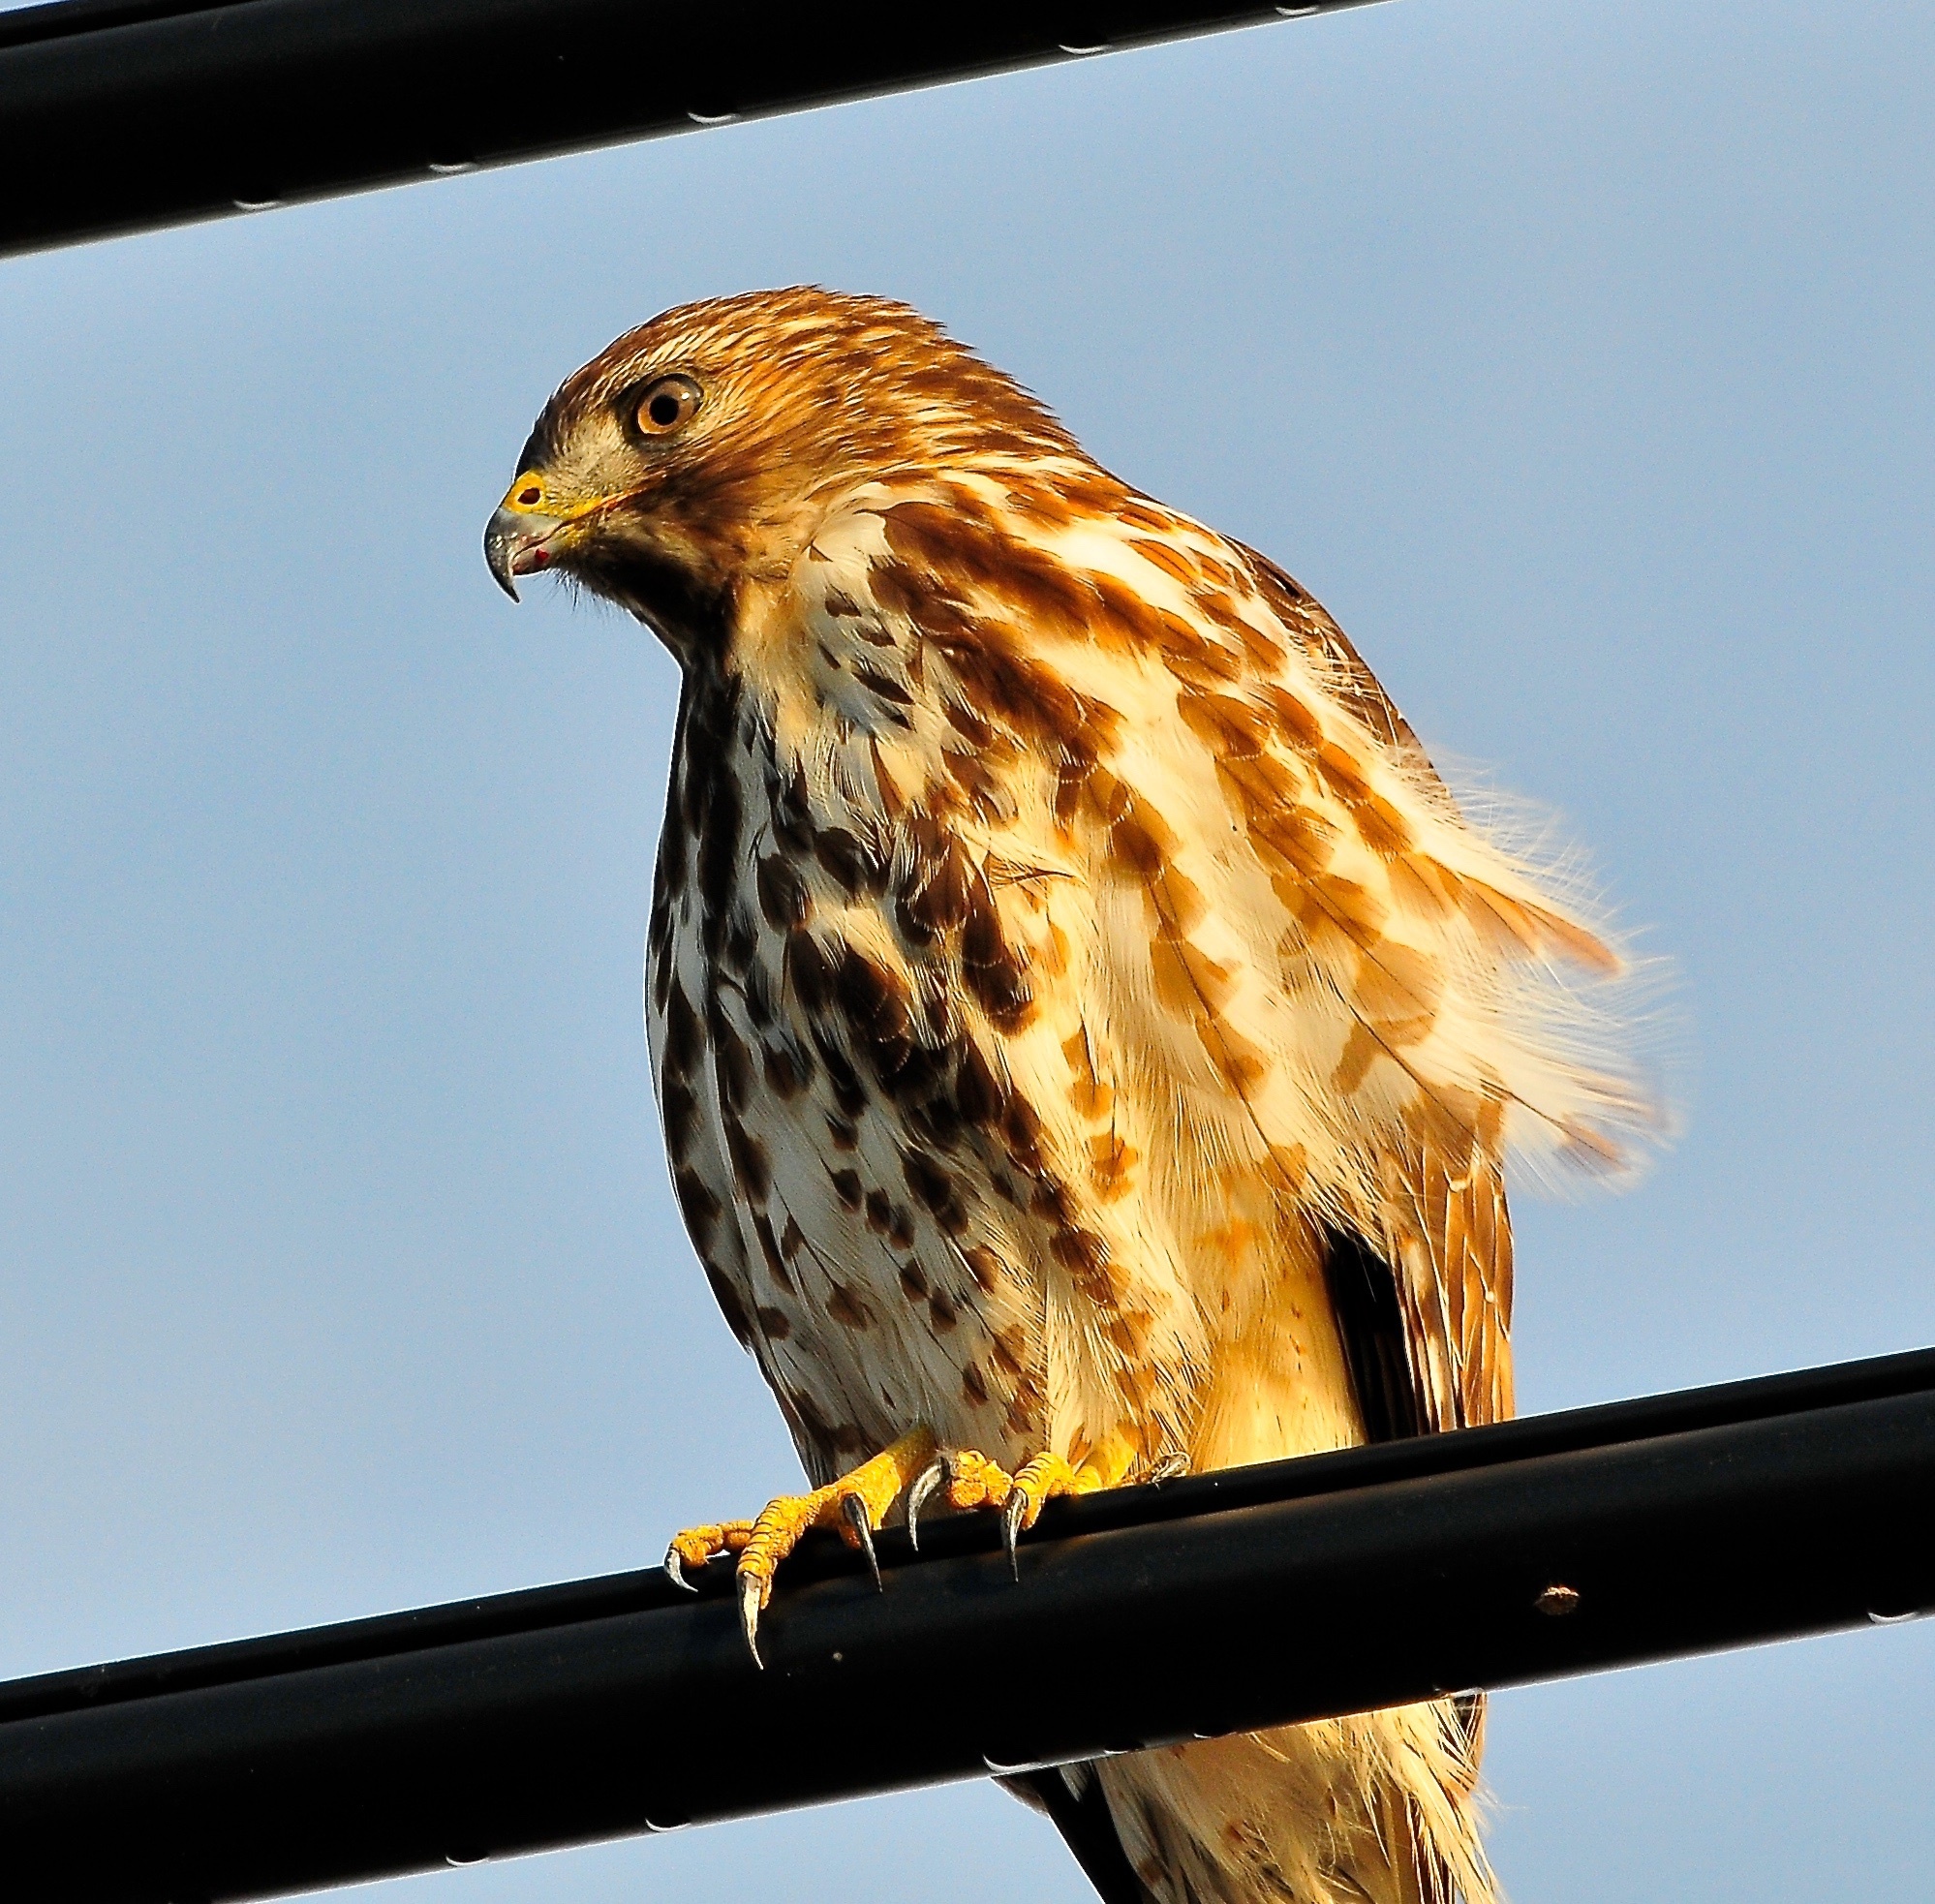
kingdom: Animalia
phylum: Chordata
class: Aves
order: Accipitriformes
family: Accipitridae
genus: Buteo
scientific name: Buteo lineatus
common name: Red-shouldered hawk
